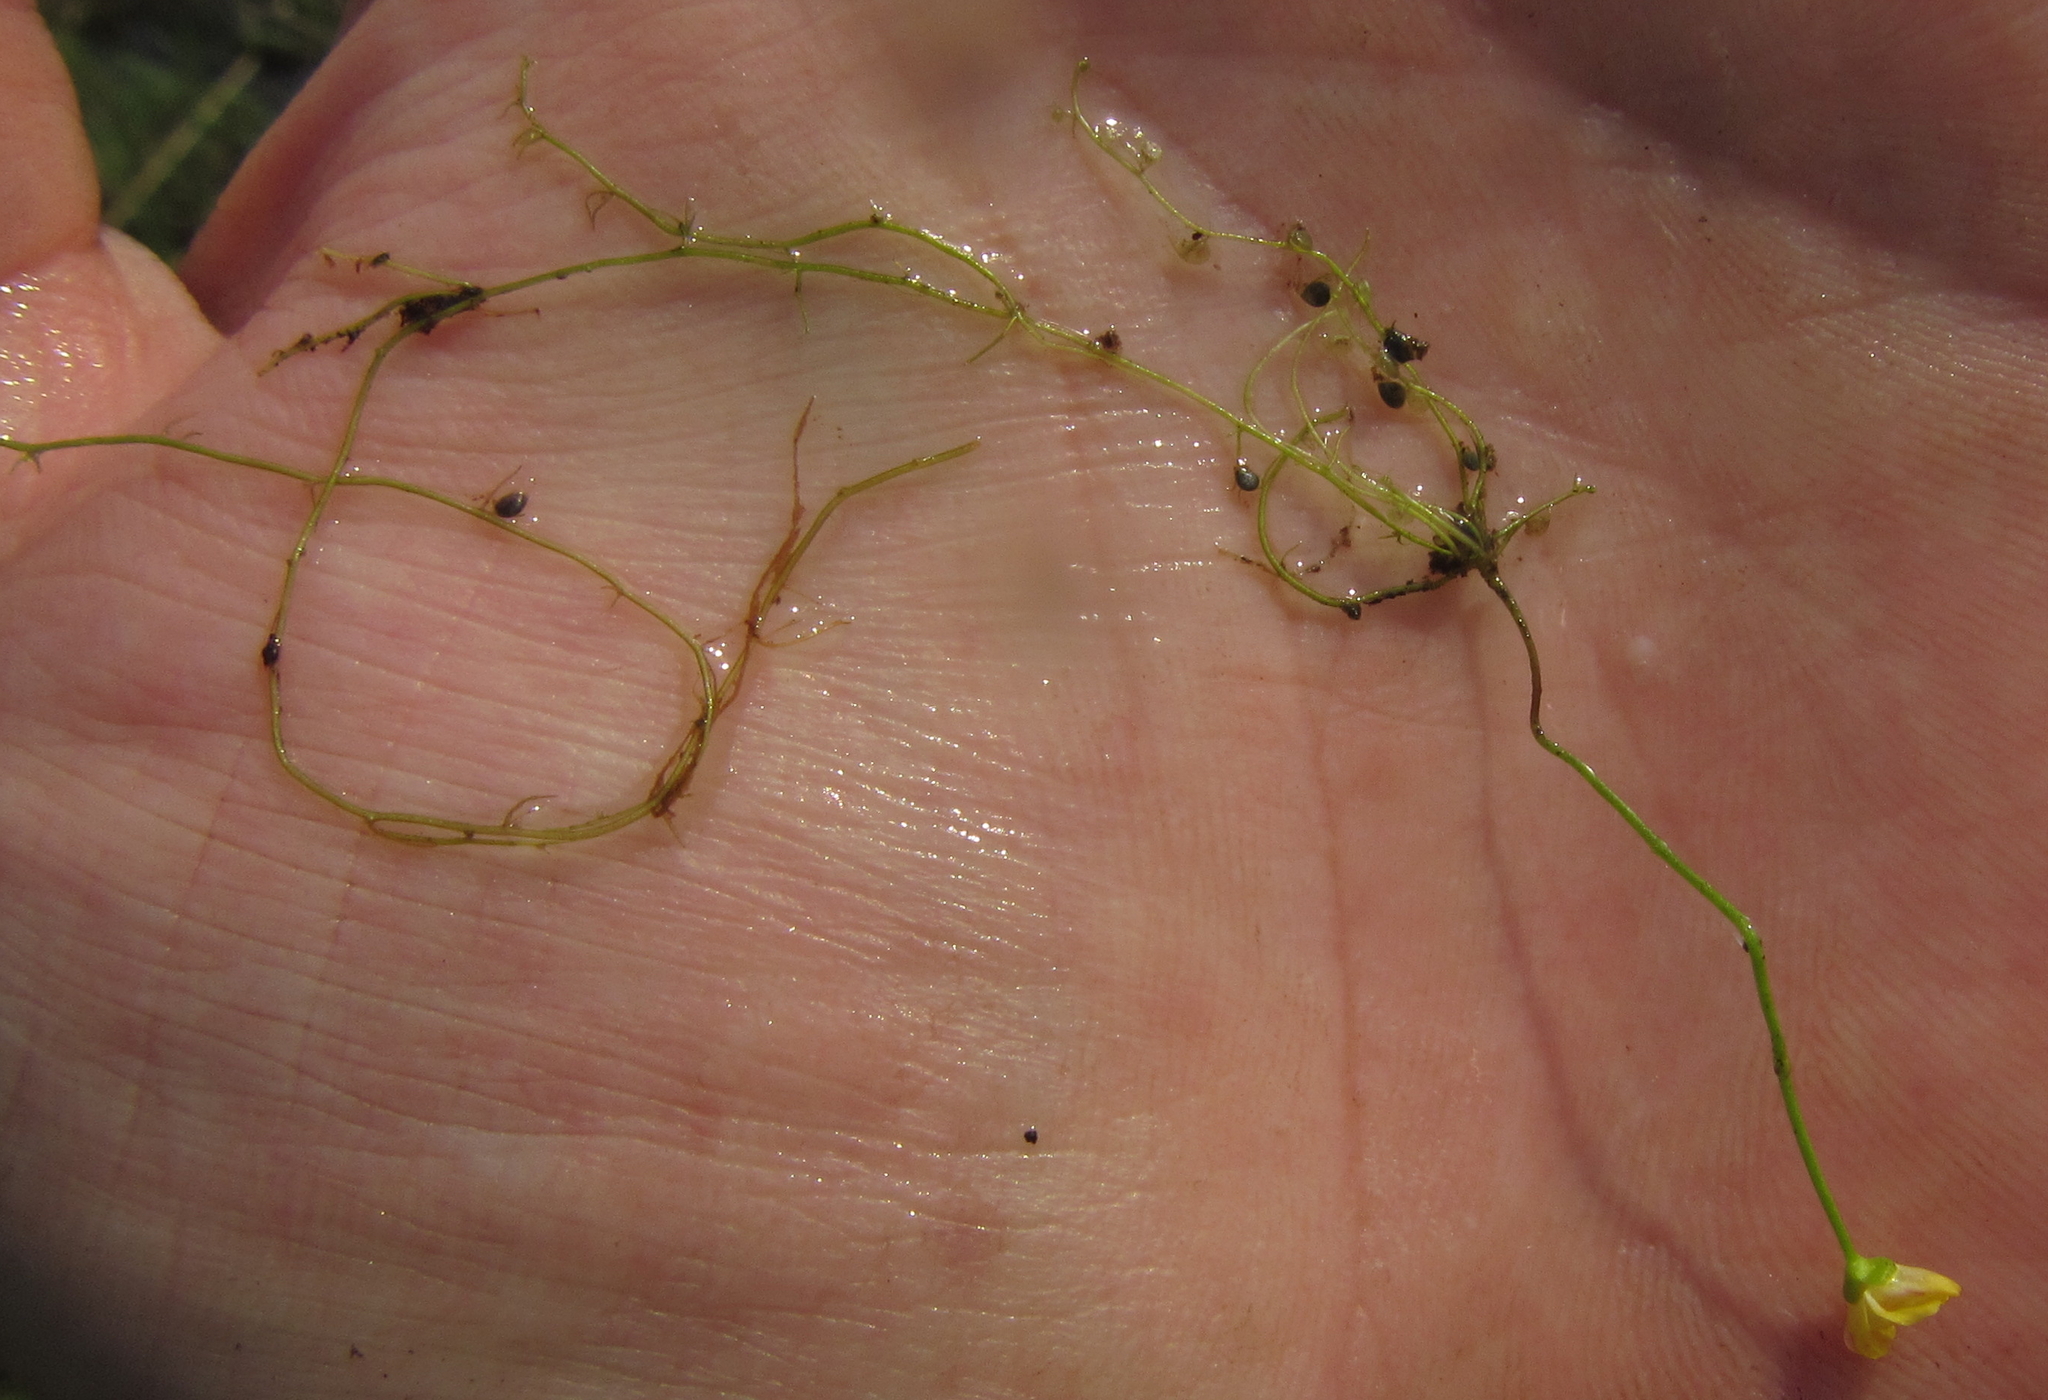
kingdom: Plantae
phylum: Tracheophyta
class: Magnoliopsida
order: Lamiales
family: Lentibulariaceae
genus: Utricularia
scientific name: Utricularia gibba
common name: Humped bladderwort
